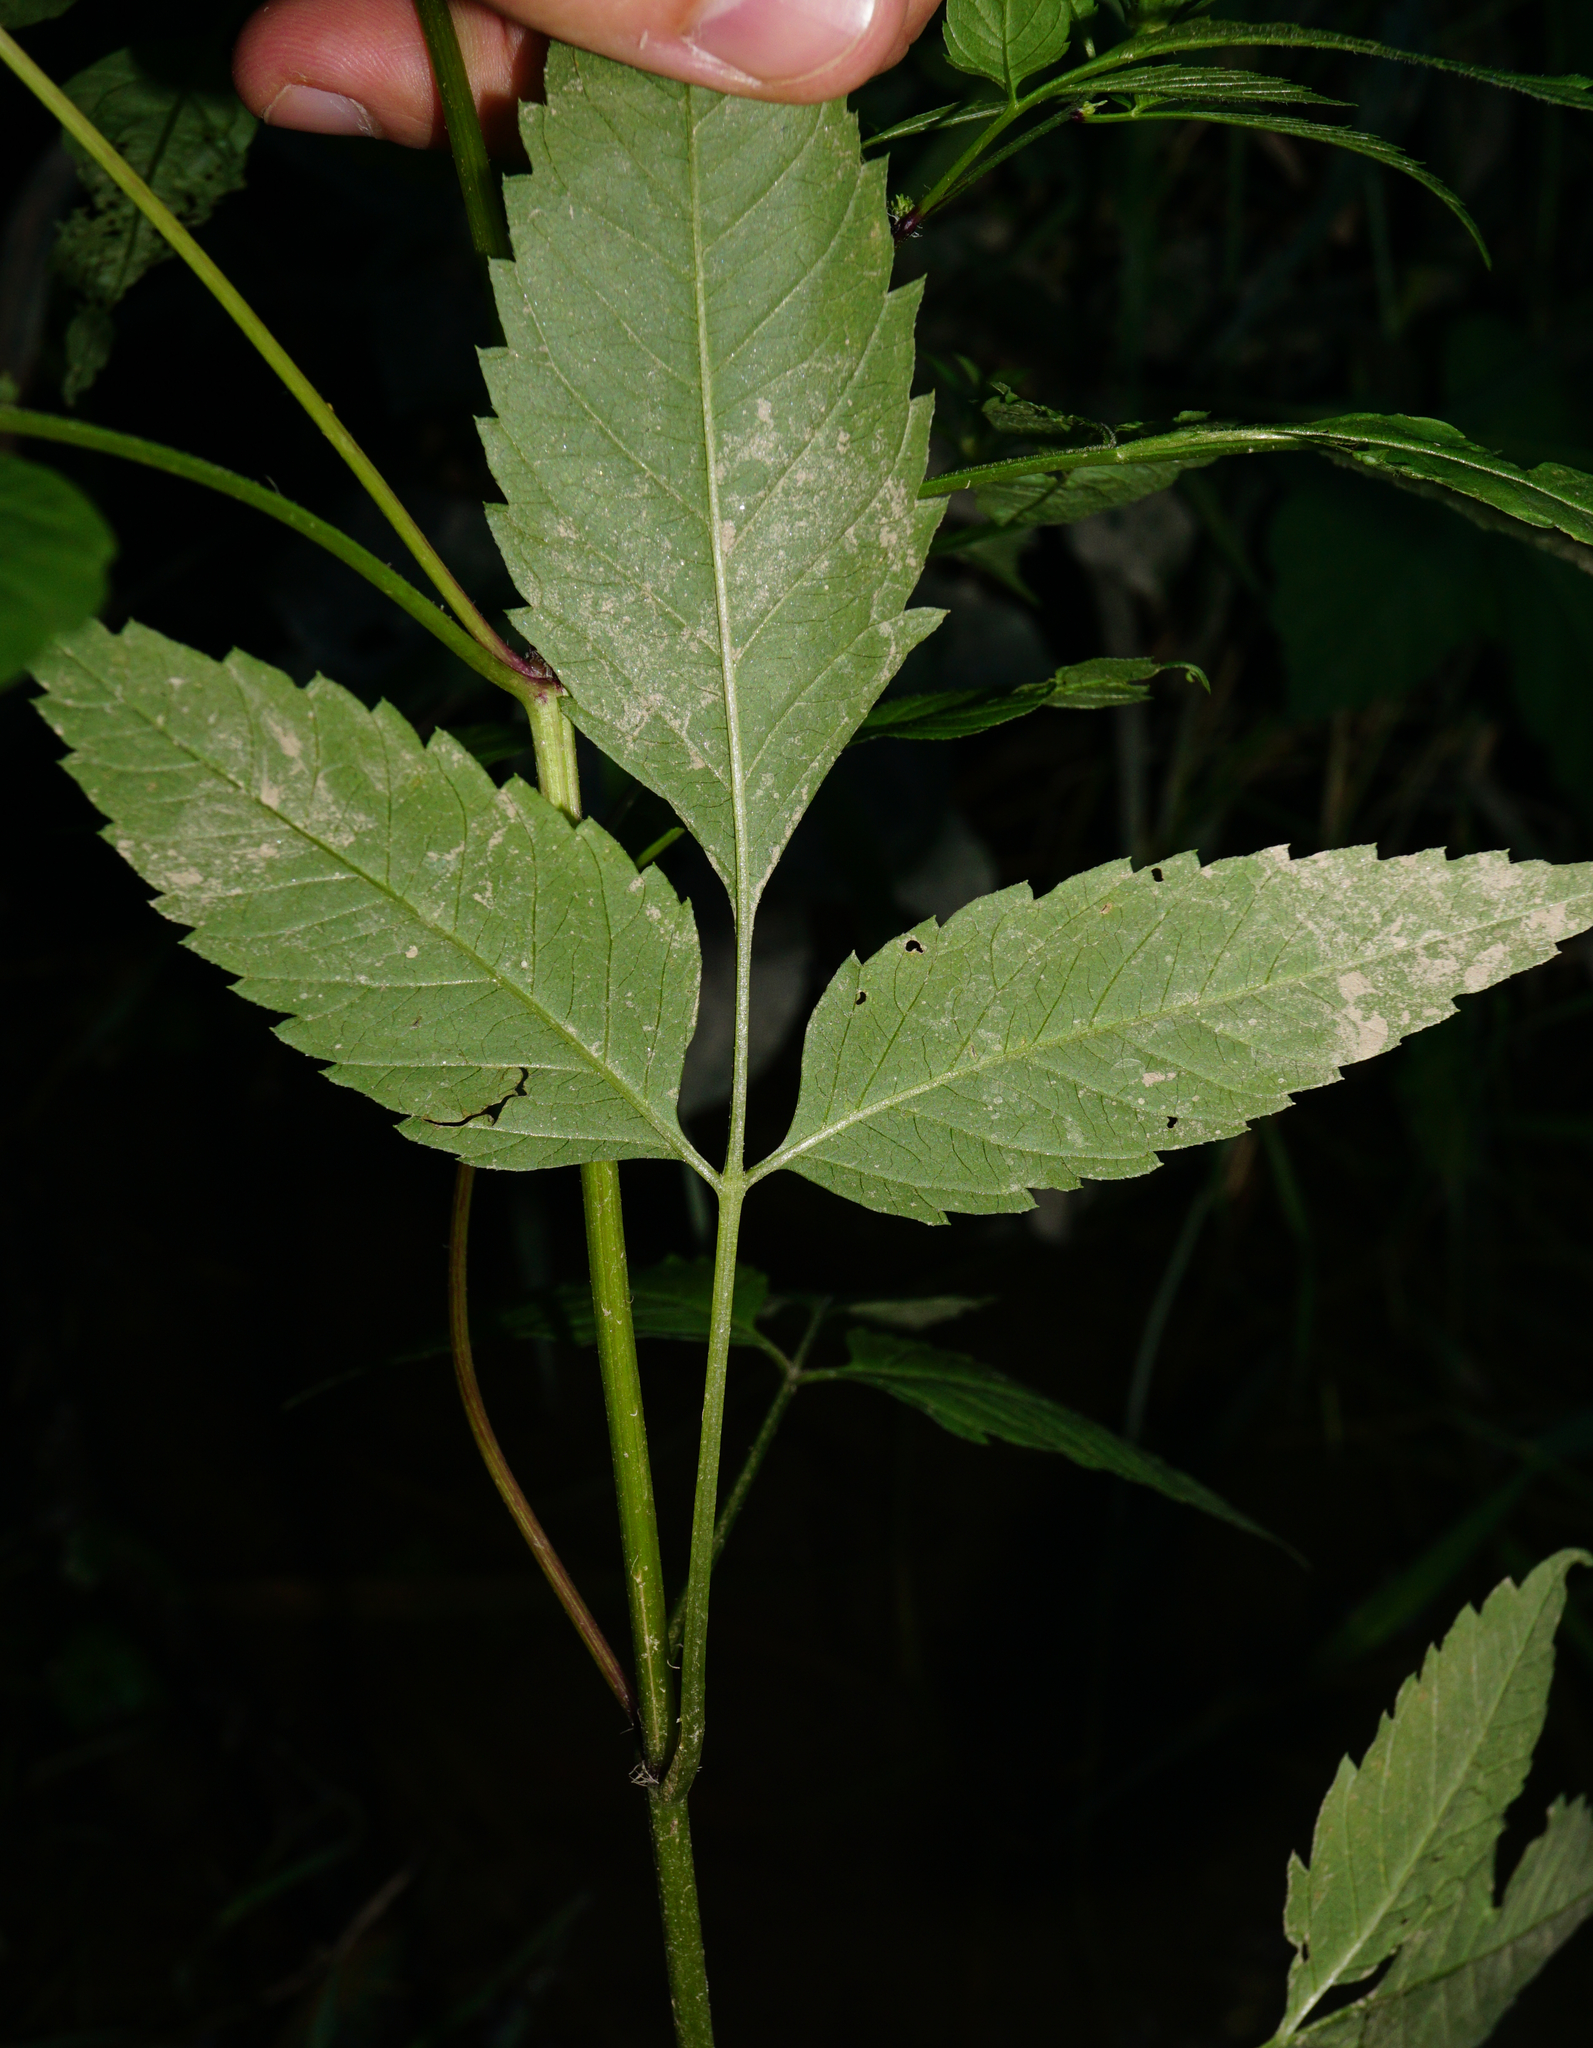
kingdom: Plantae
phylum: Tracheophyta
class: Magnoliopsida
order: Asterales
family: Asteraceae
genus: Bidens
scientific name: Bidens frondosa
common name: Beggarticks
